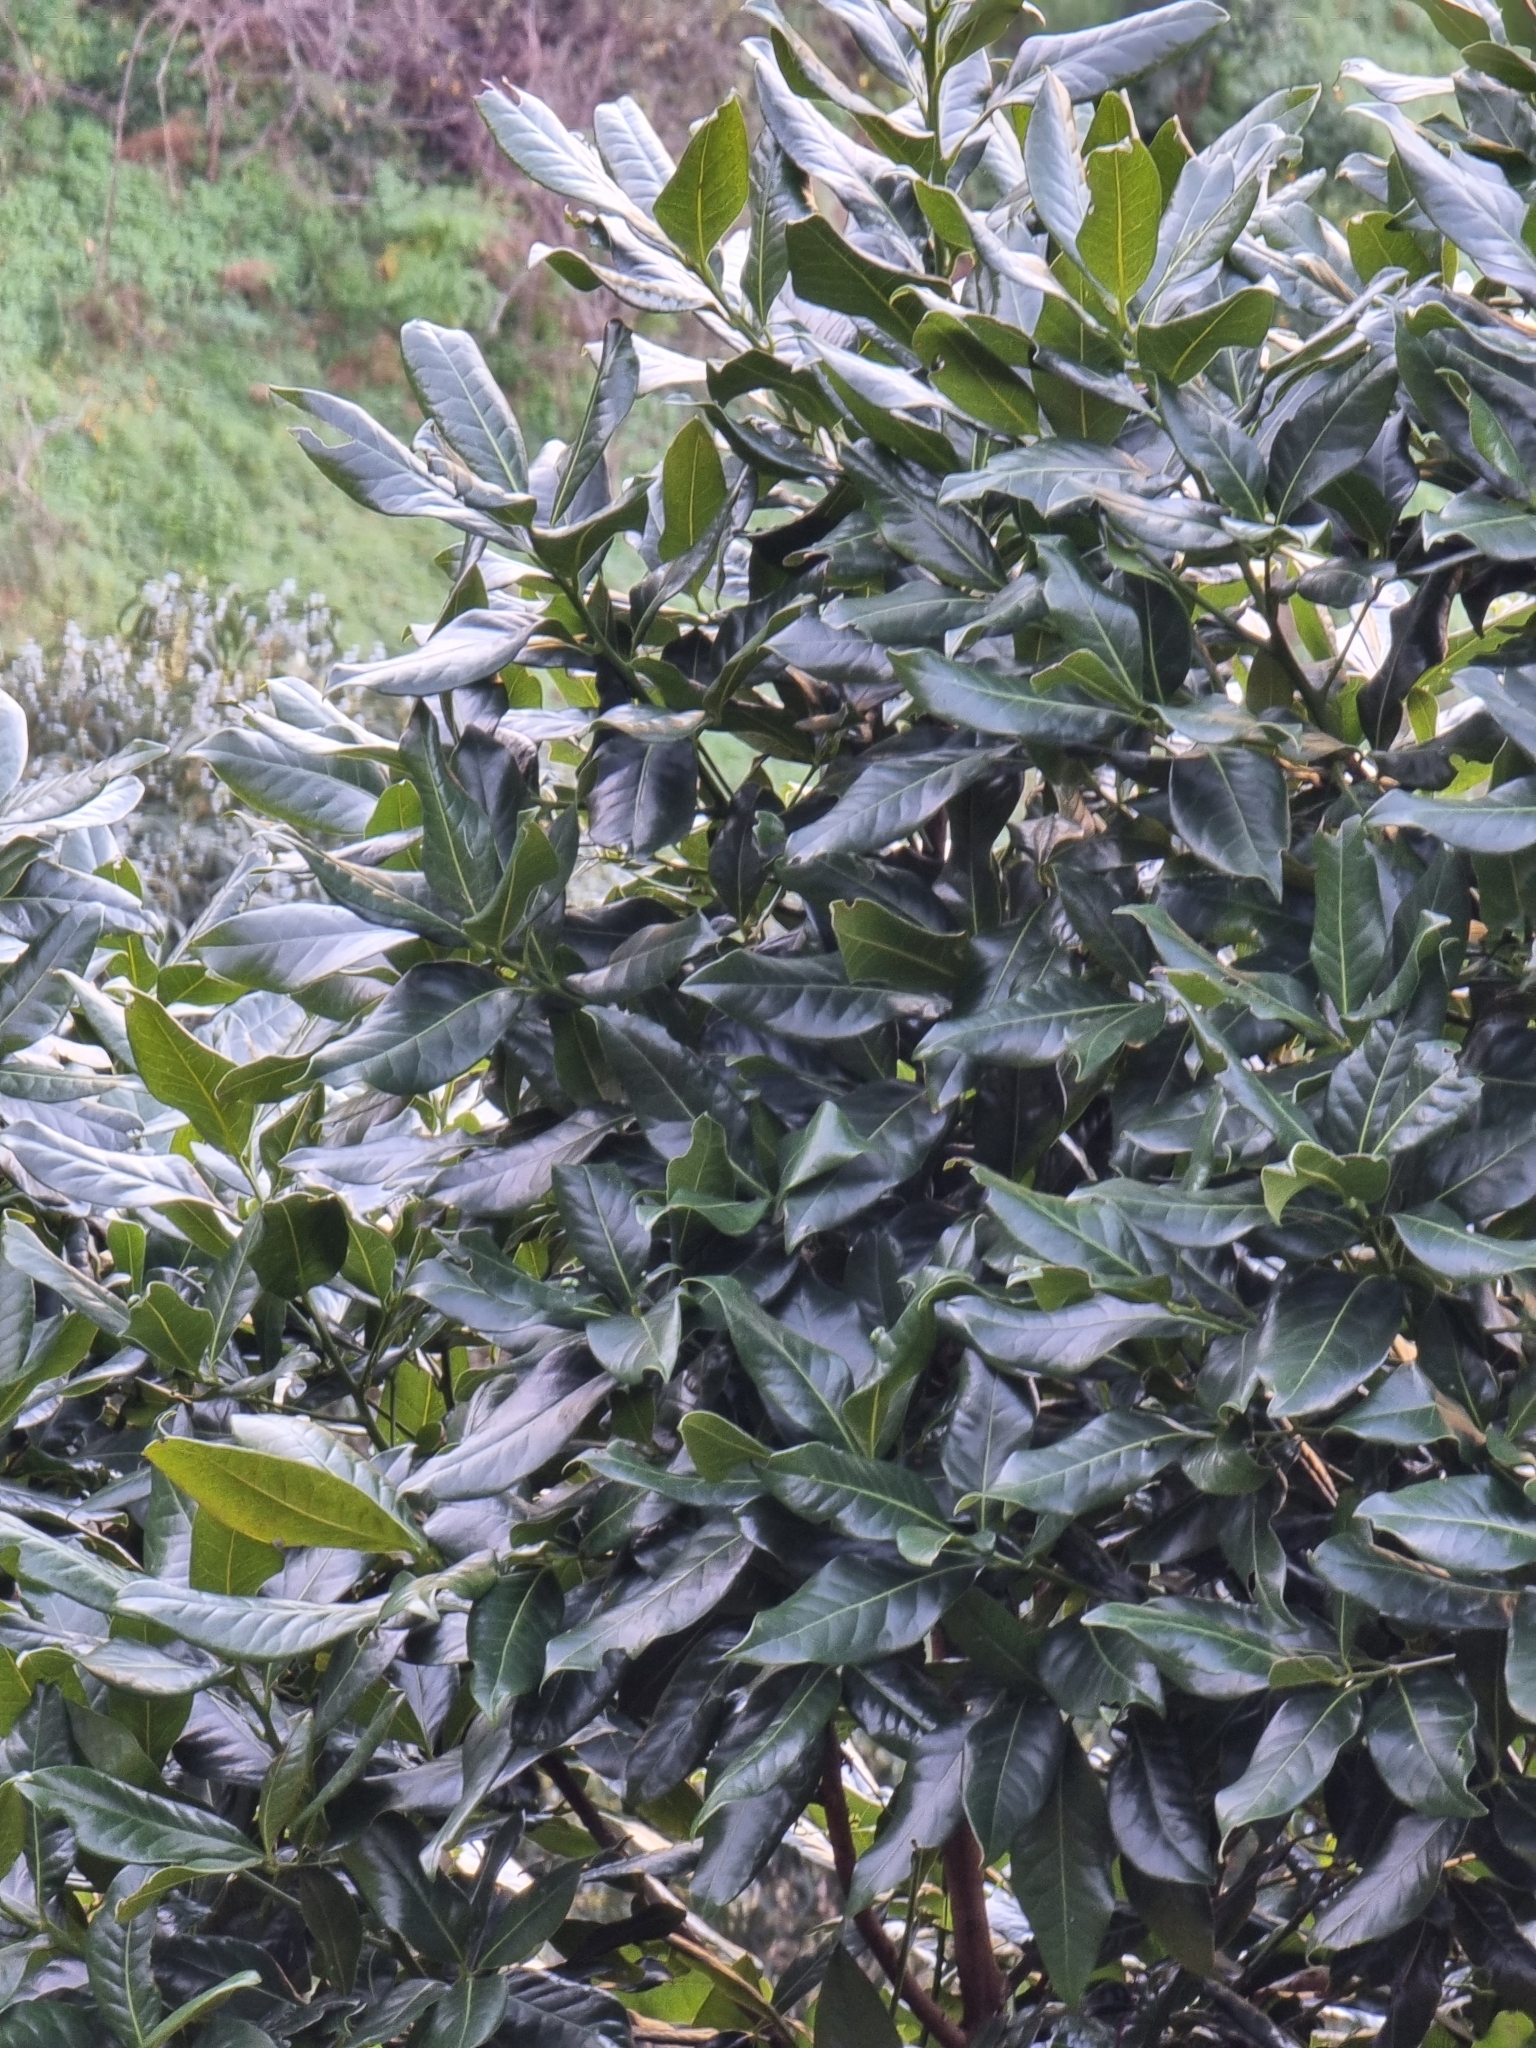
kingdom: Plantae
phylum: Tracheophyta
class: Magnoliopsida
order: Laurales
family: Lauraceae
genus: Apollonias
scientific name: Apollonias barbujana
